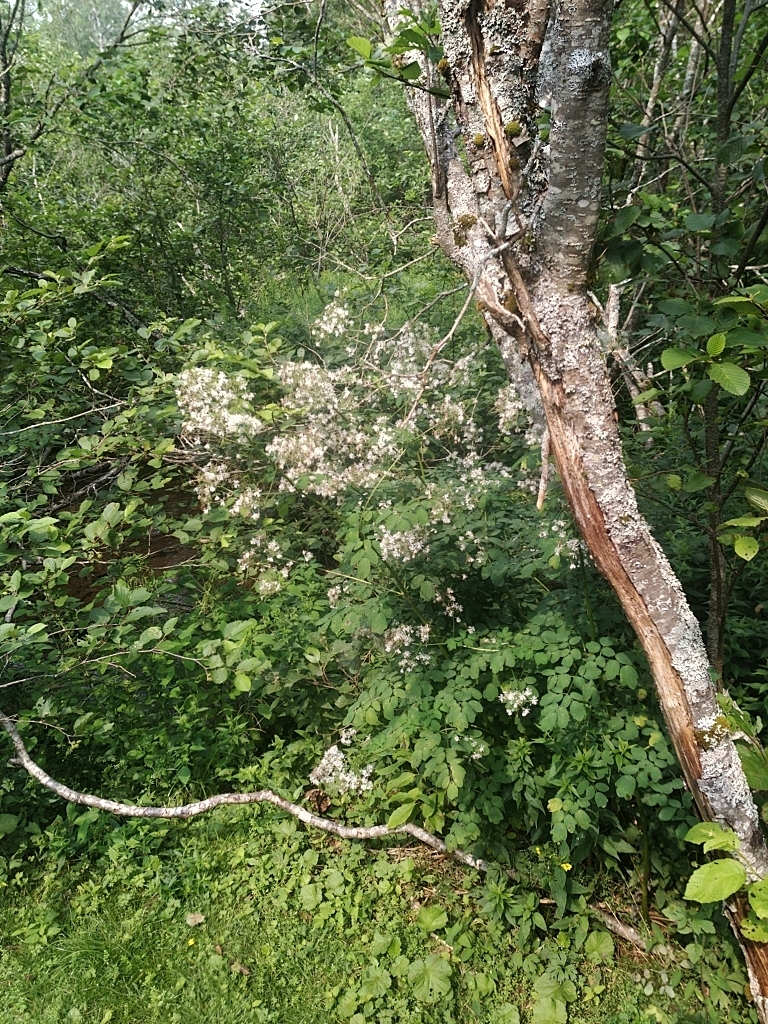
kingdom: Plantae
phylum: Tracheophyta
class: Magnoliopsida
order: Ranunculales
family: Ranunculaceae
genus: Thalictrum
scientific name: Thalictrum pubescens
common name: King-of-the-meadow
